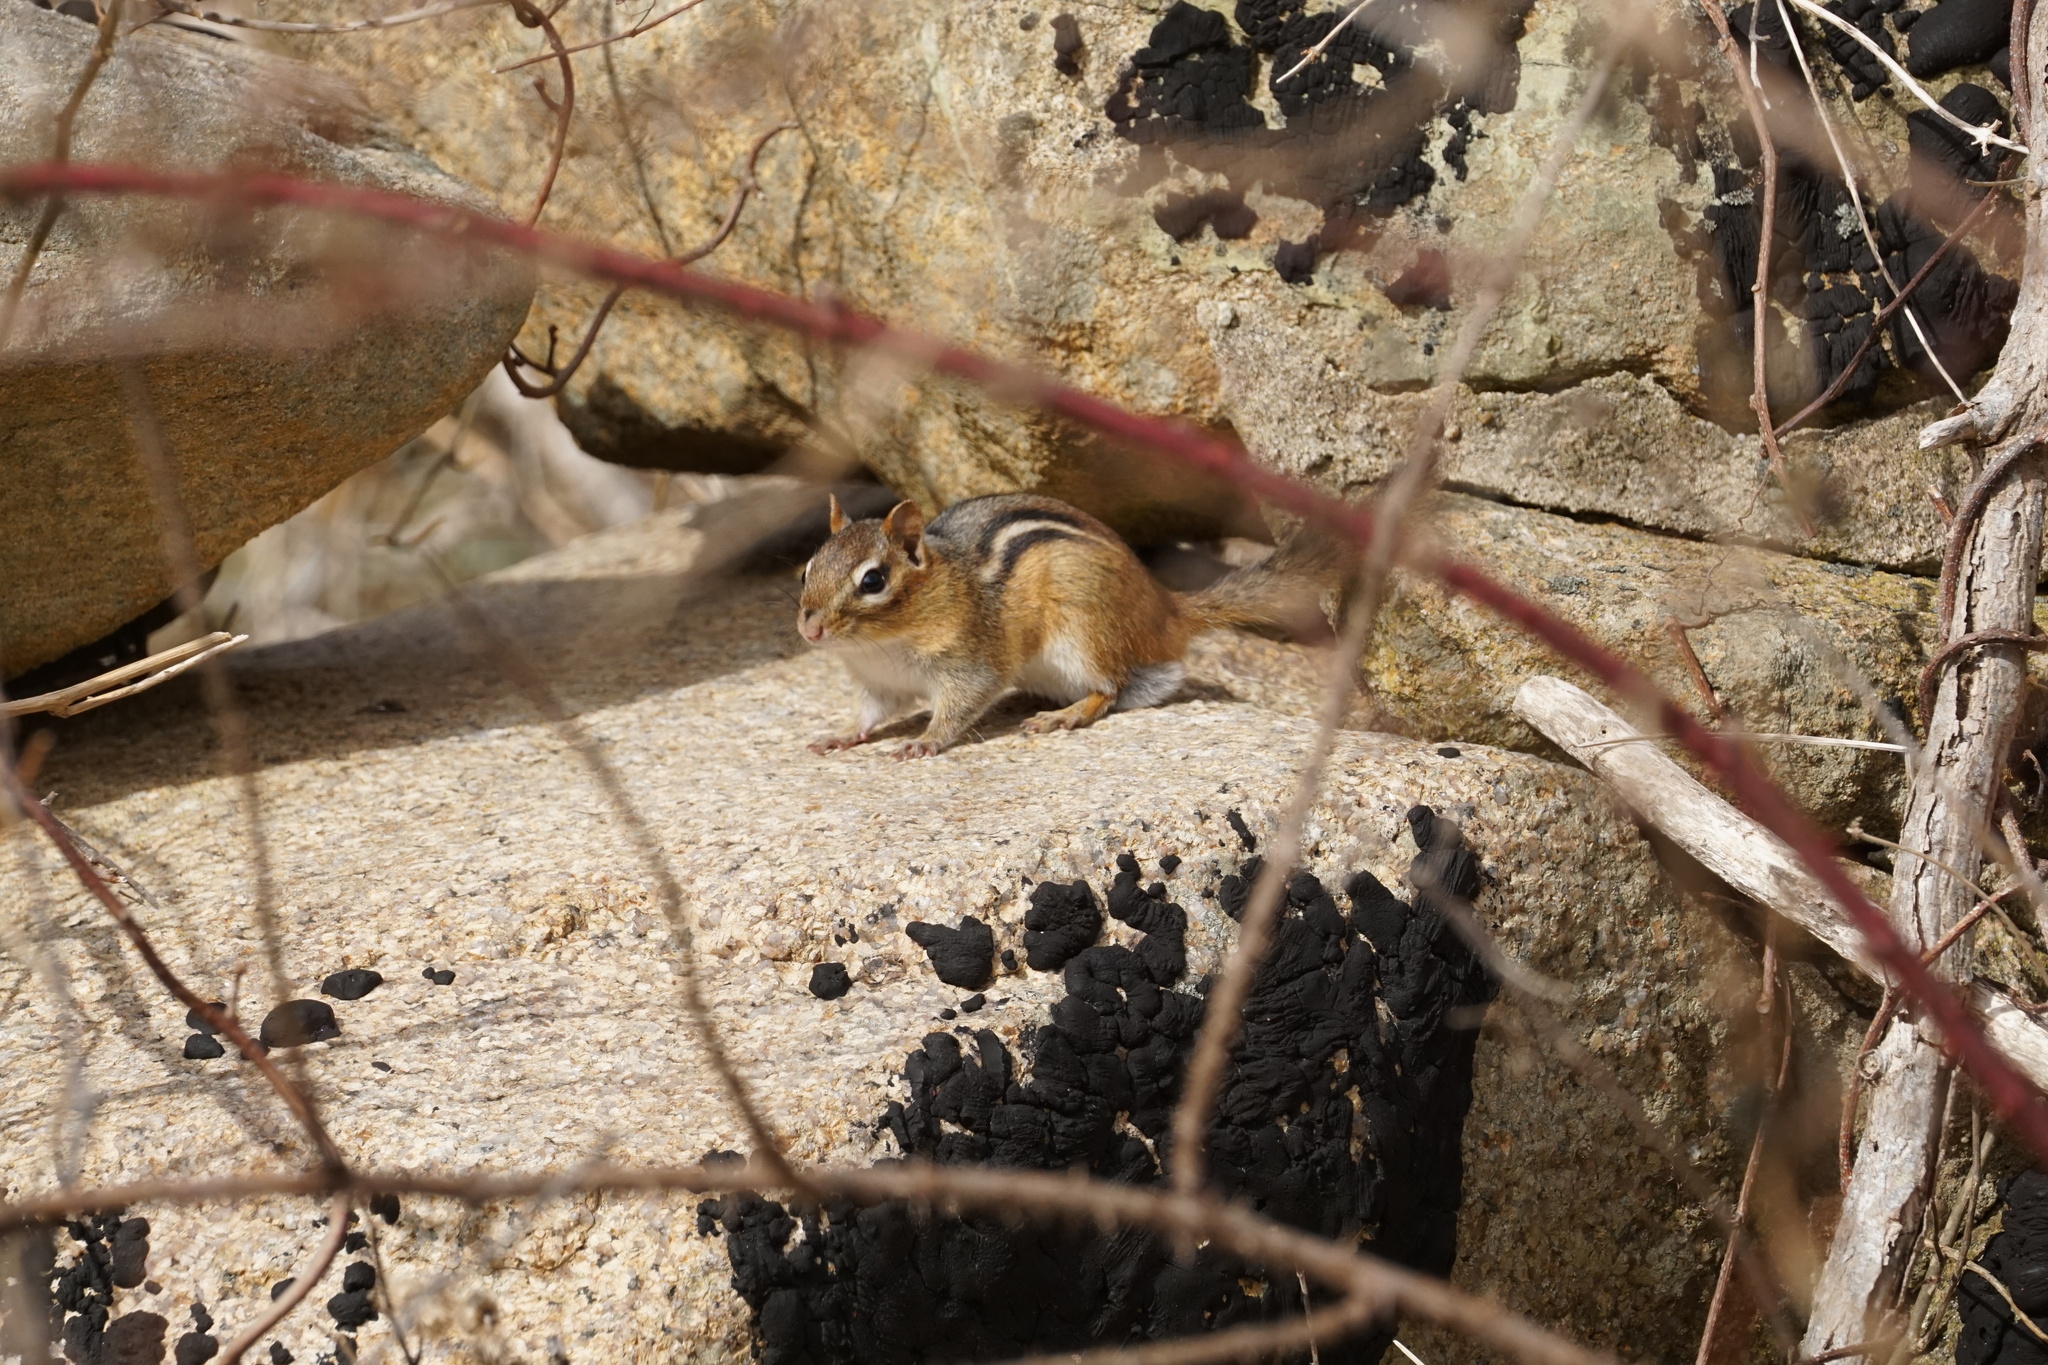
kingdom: Animalia
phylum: Chordata
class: Mammalia
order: Rodentia
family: Sciuridae
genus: Tamias
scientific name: Tamias striatus
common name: Eastern chipmunk
